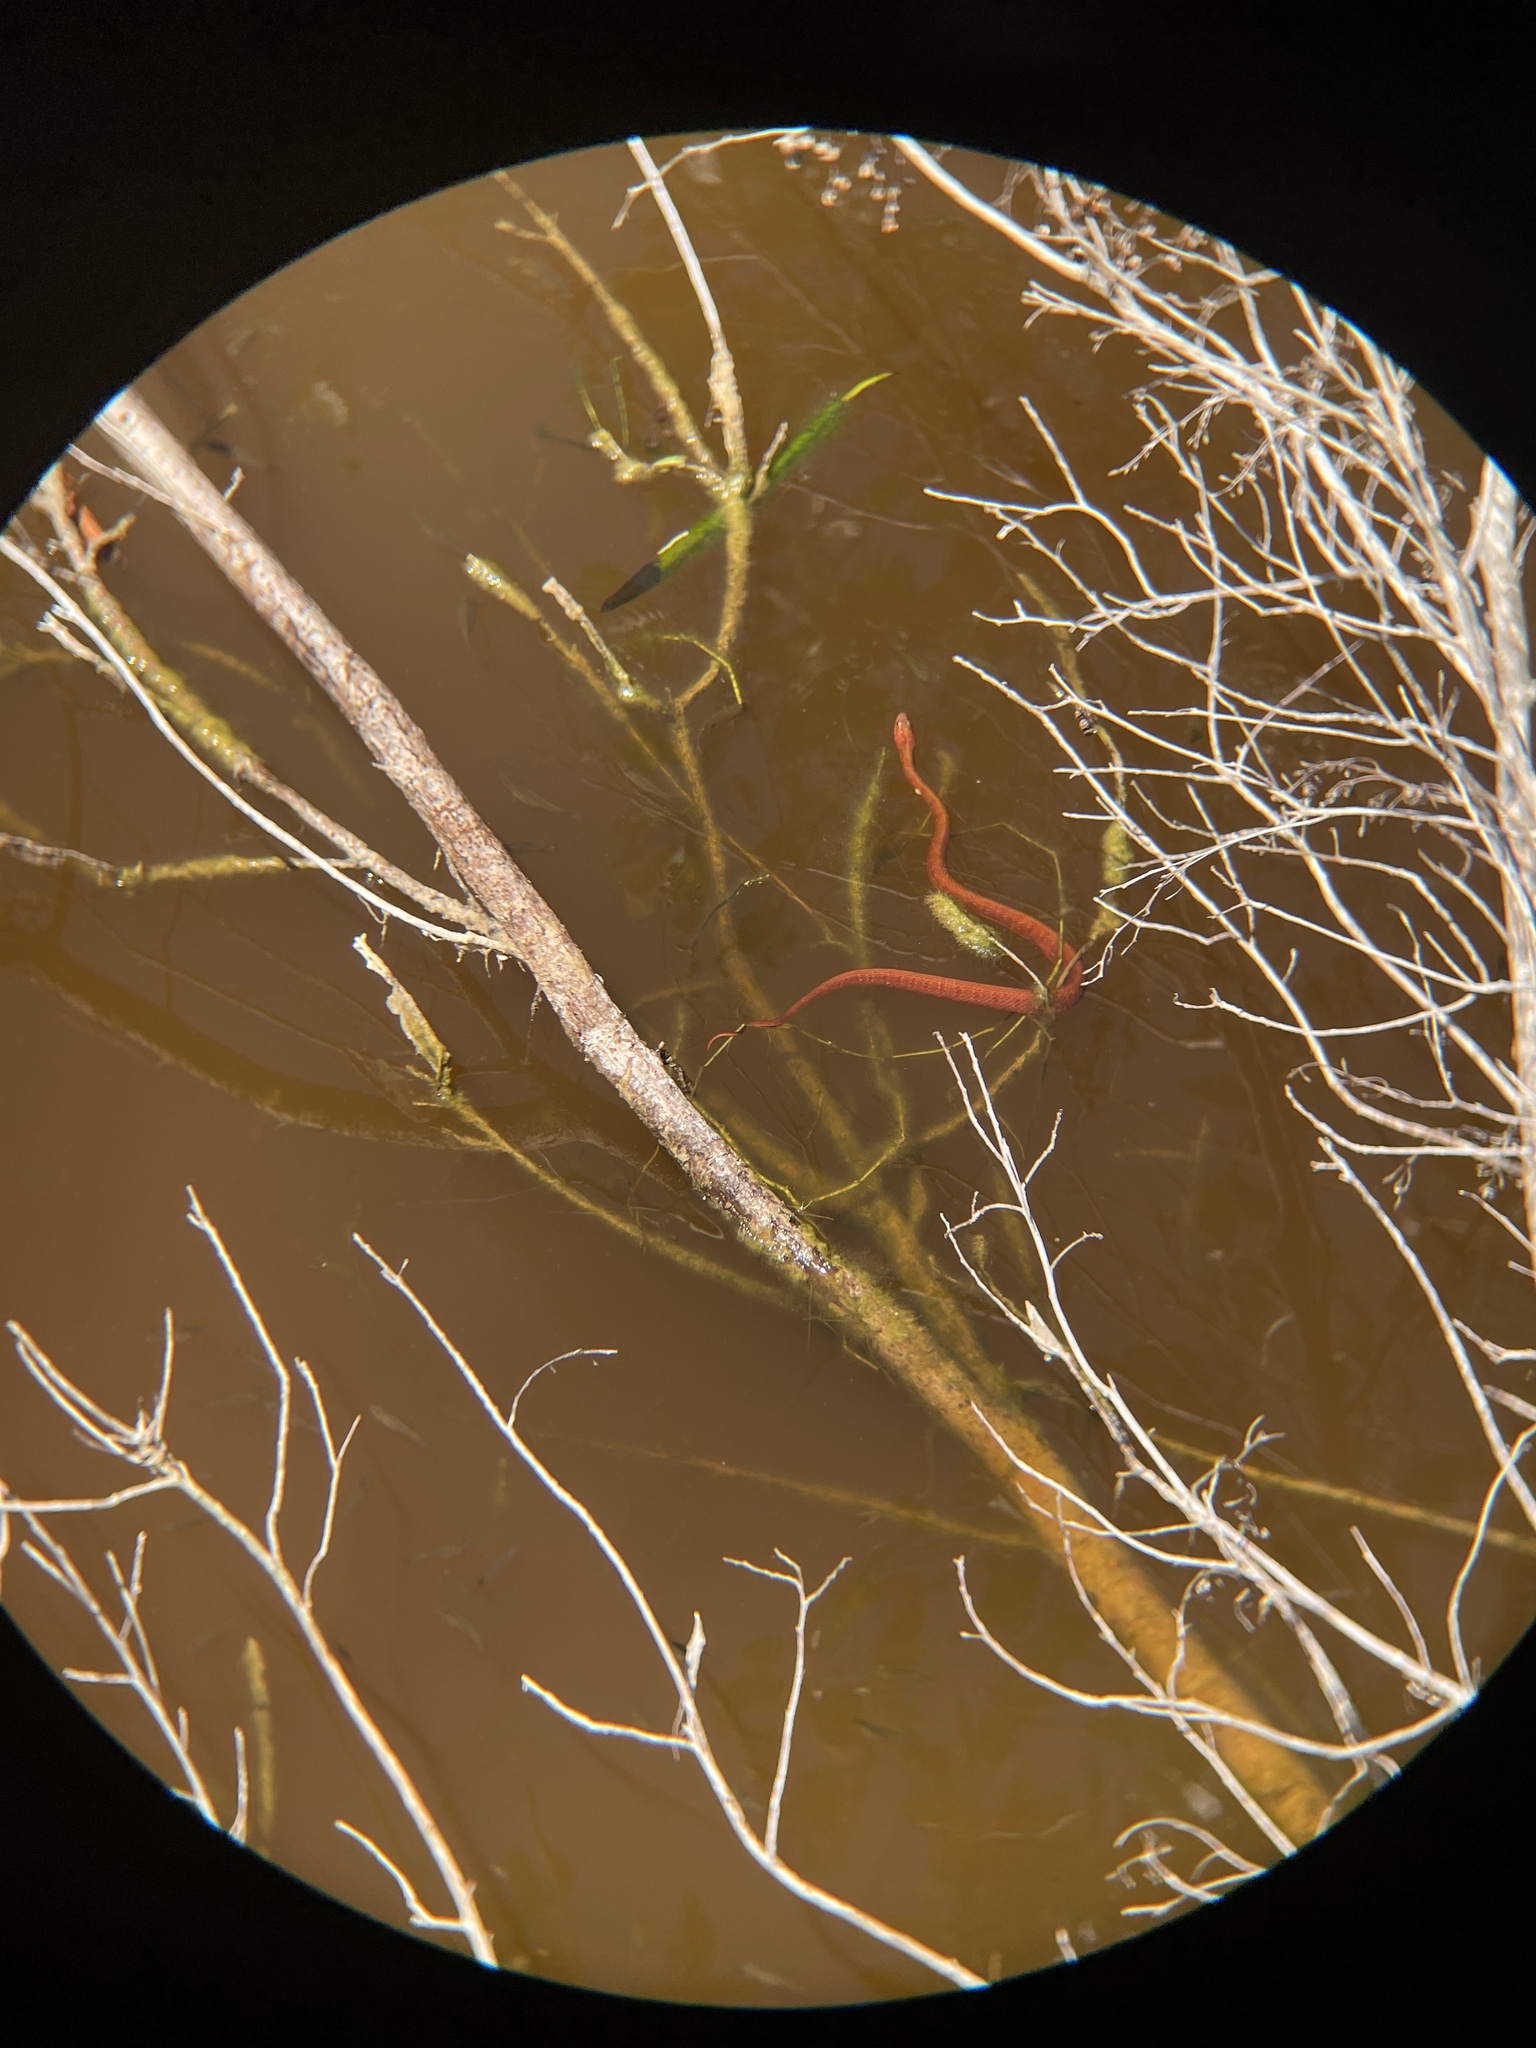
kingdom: Animalia
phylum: Chordata
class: Squamata
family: Colubridae
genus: Nerodia
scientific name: Nerodia clarkii
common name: Atlantic saltmarsh snake
